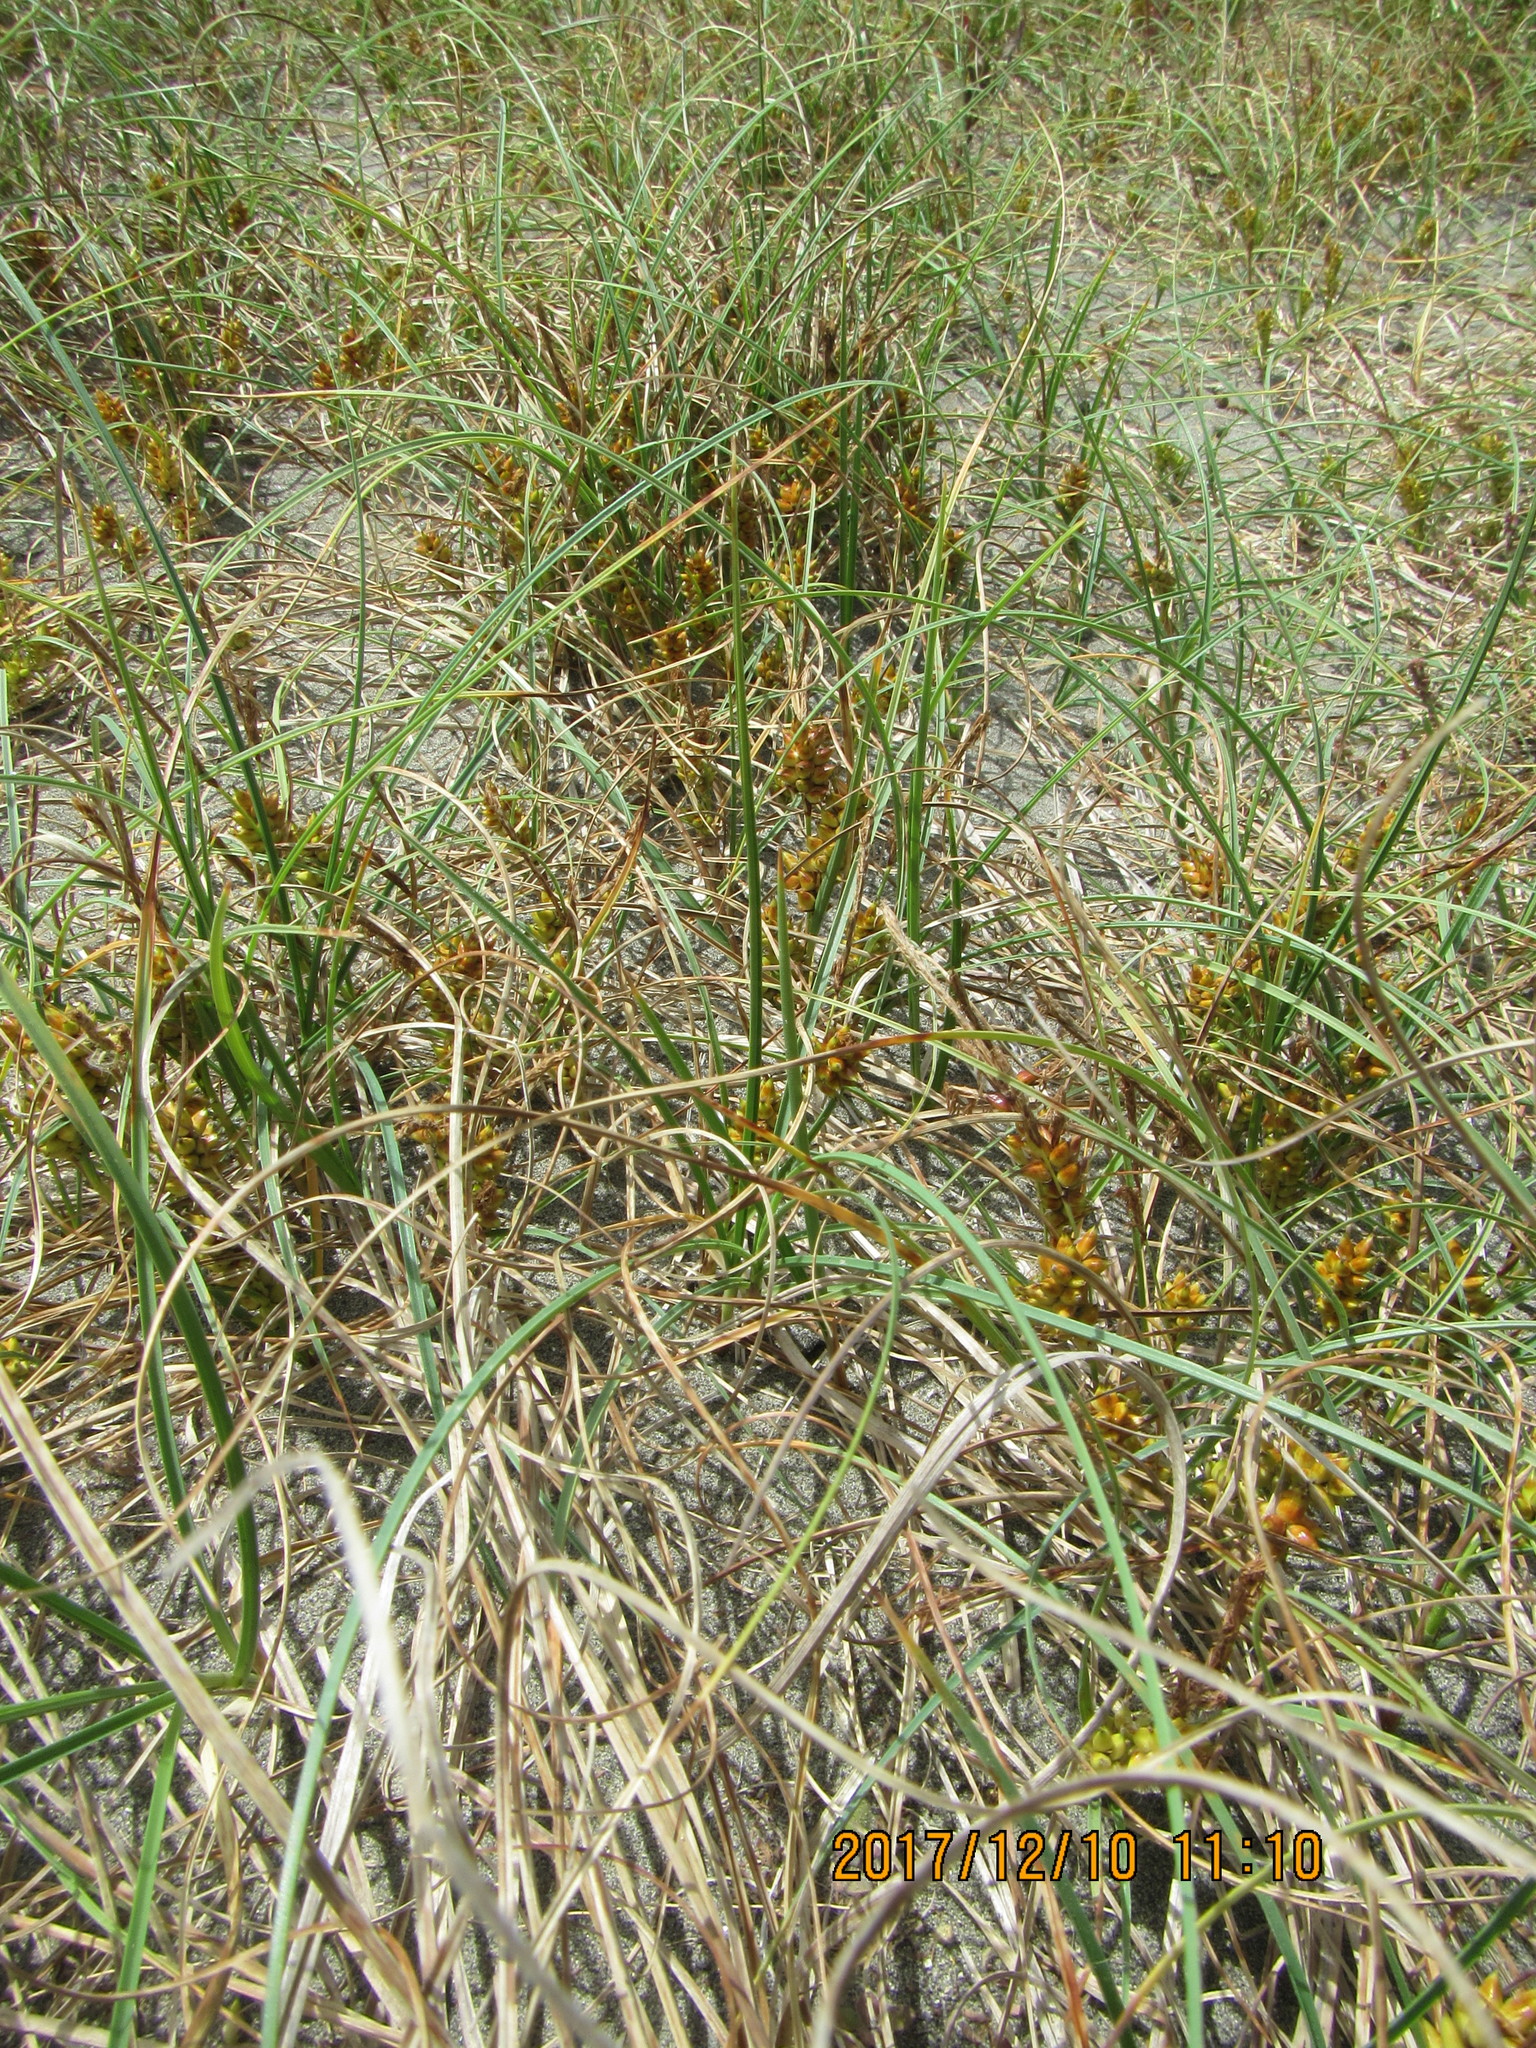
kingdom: Plantae
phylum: Tracheophyta
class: Liliopsida
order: Poales
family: Cyperaceae
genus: Carex
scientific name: Carex pumila
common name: Dwarf sedge
